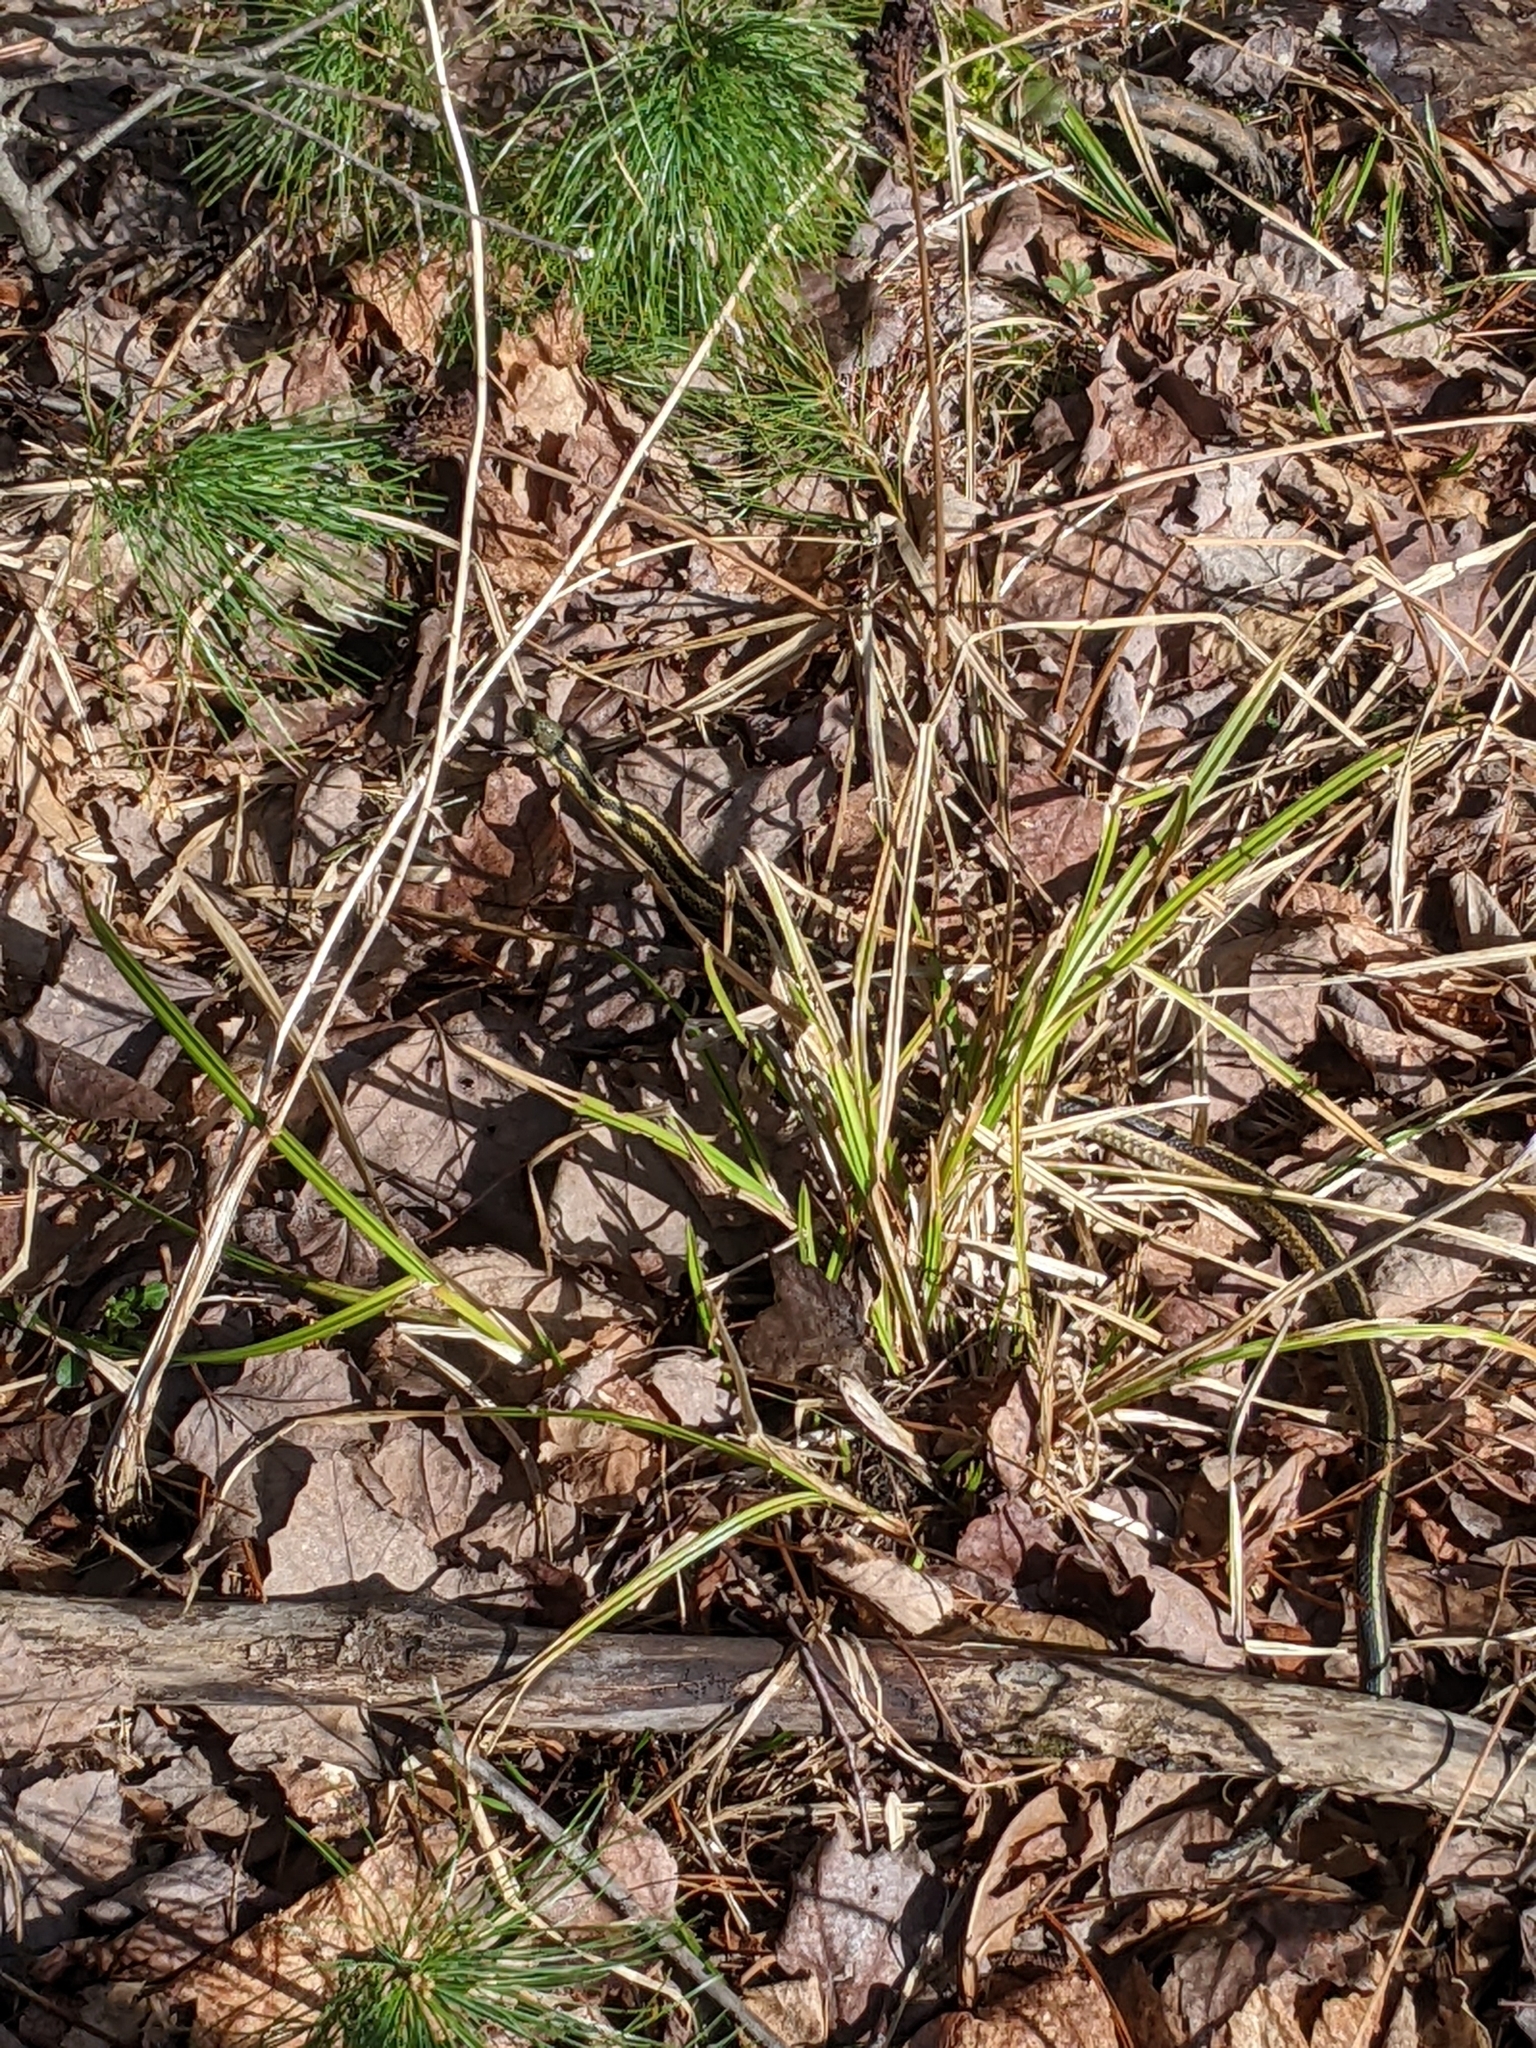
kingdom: Animalia
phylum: Chordata
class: Squamata
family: Colubridae
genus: Thamnophis
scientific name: Thamnophis sirtalis
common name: Common garter snake
